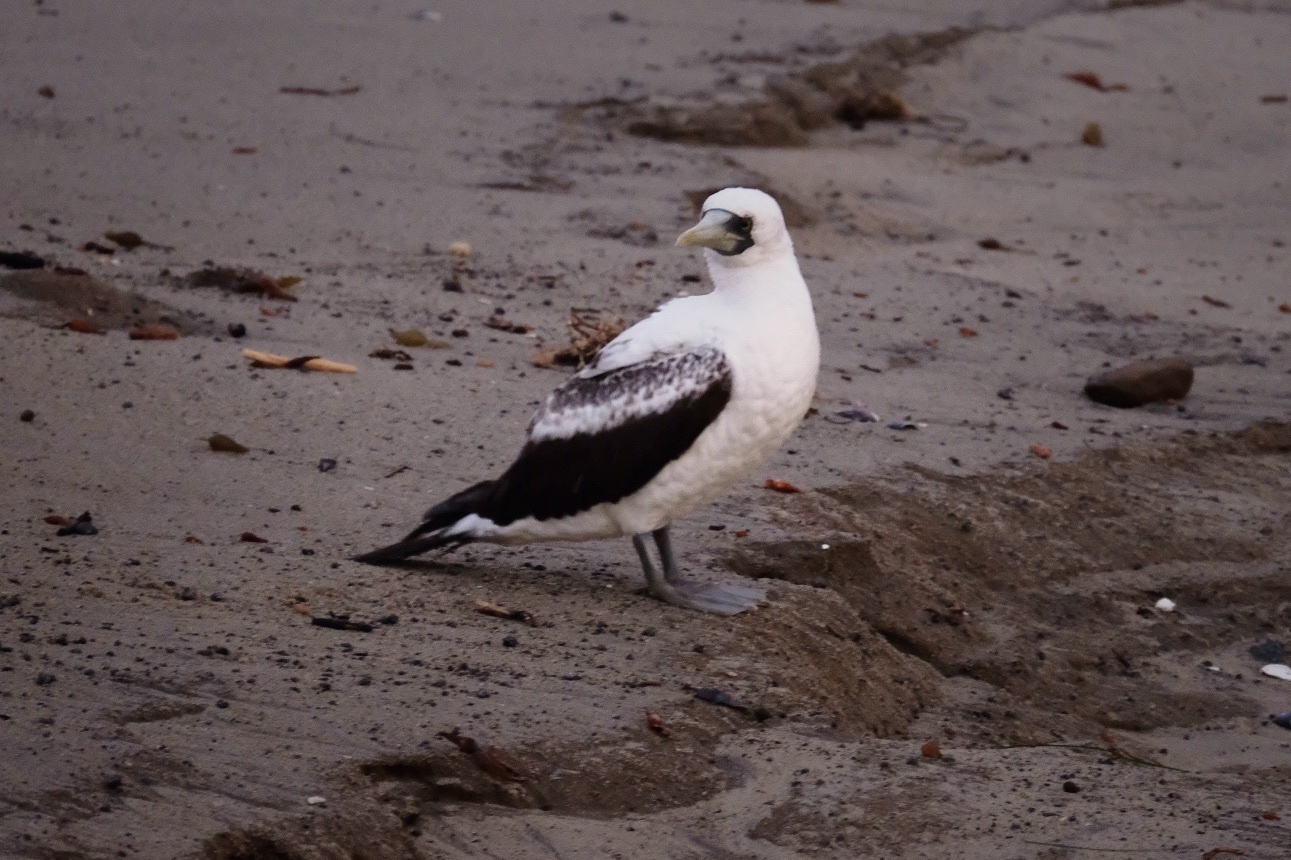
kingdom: Animalia
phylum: Chordata
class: Aves
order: Suliformes
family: Sulidae
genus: Sula
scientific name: Sula dactylatra
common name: Masked booby
